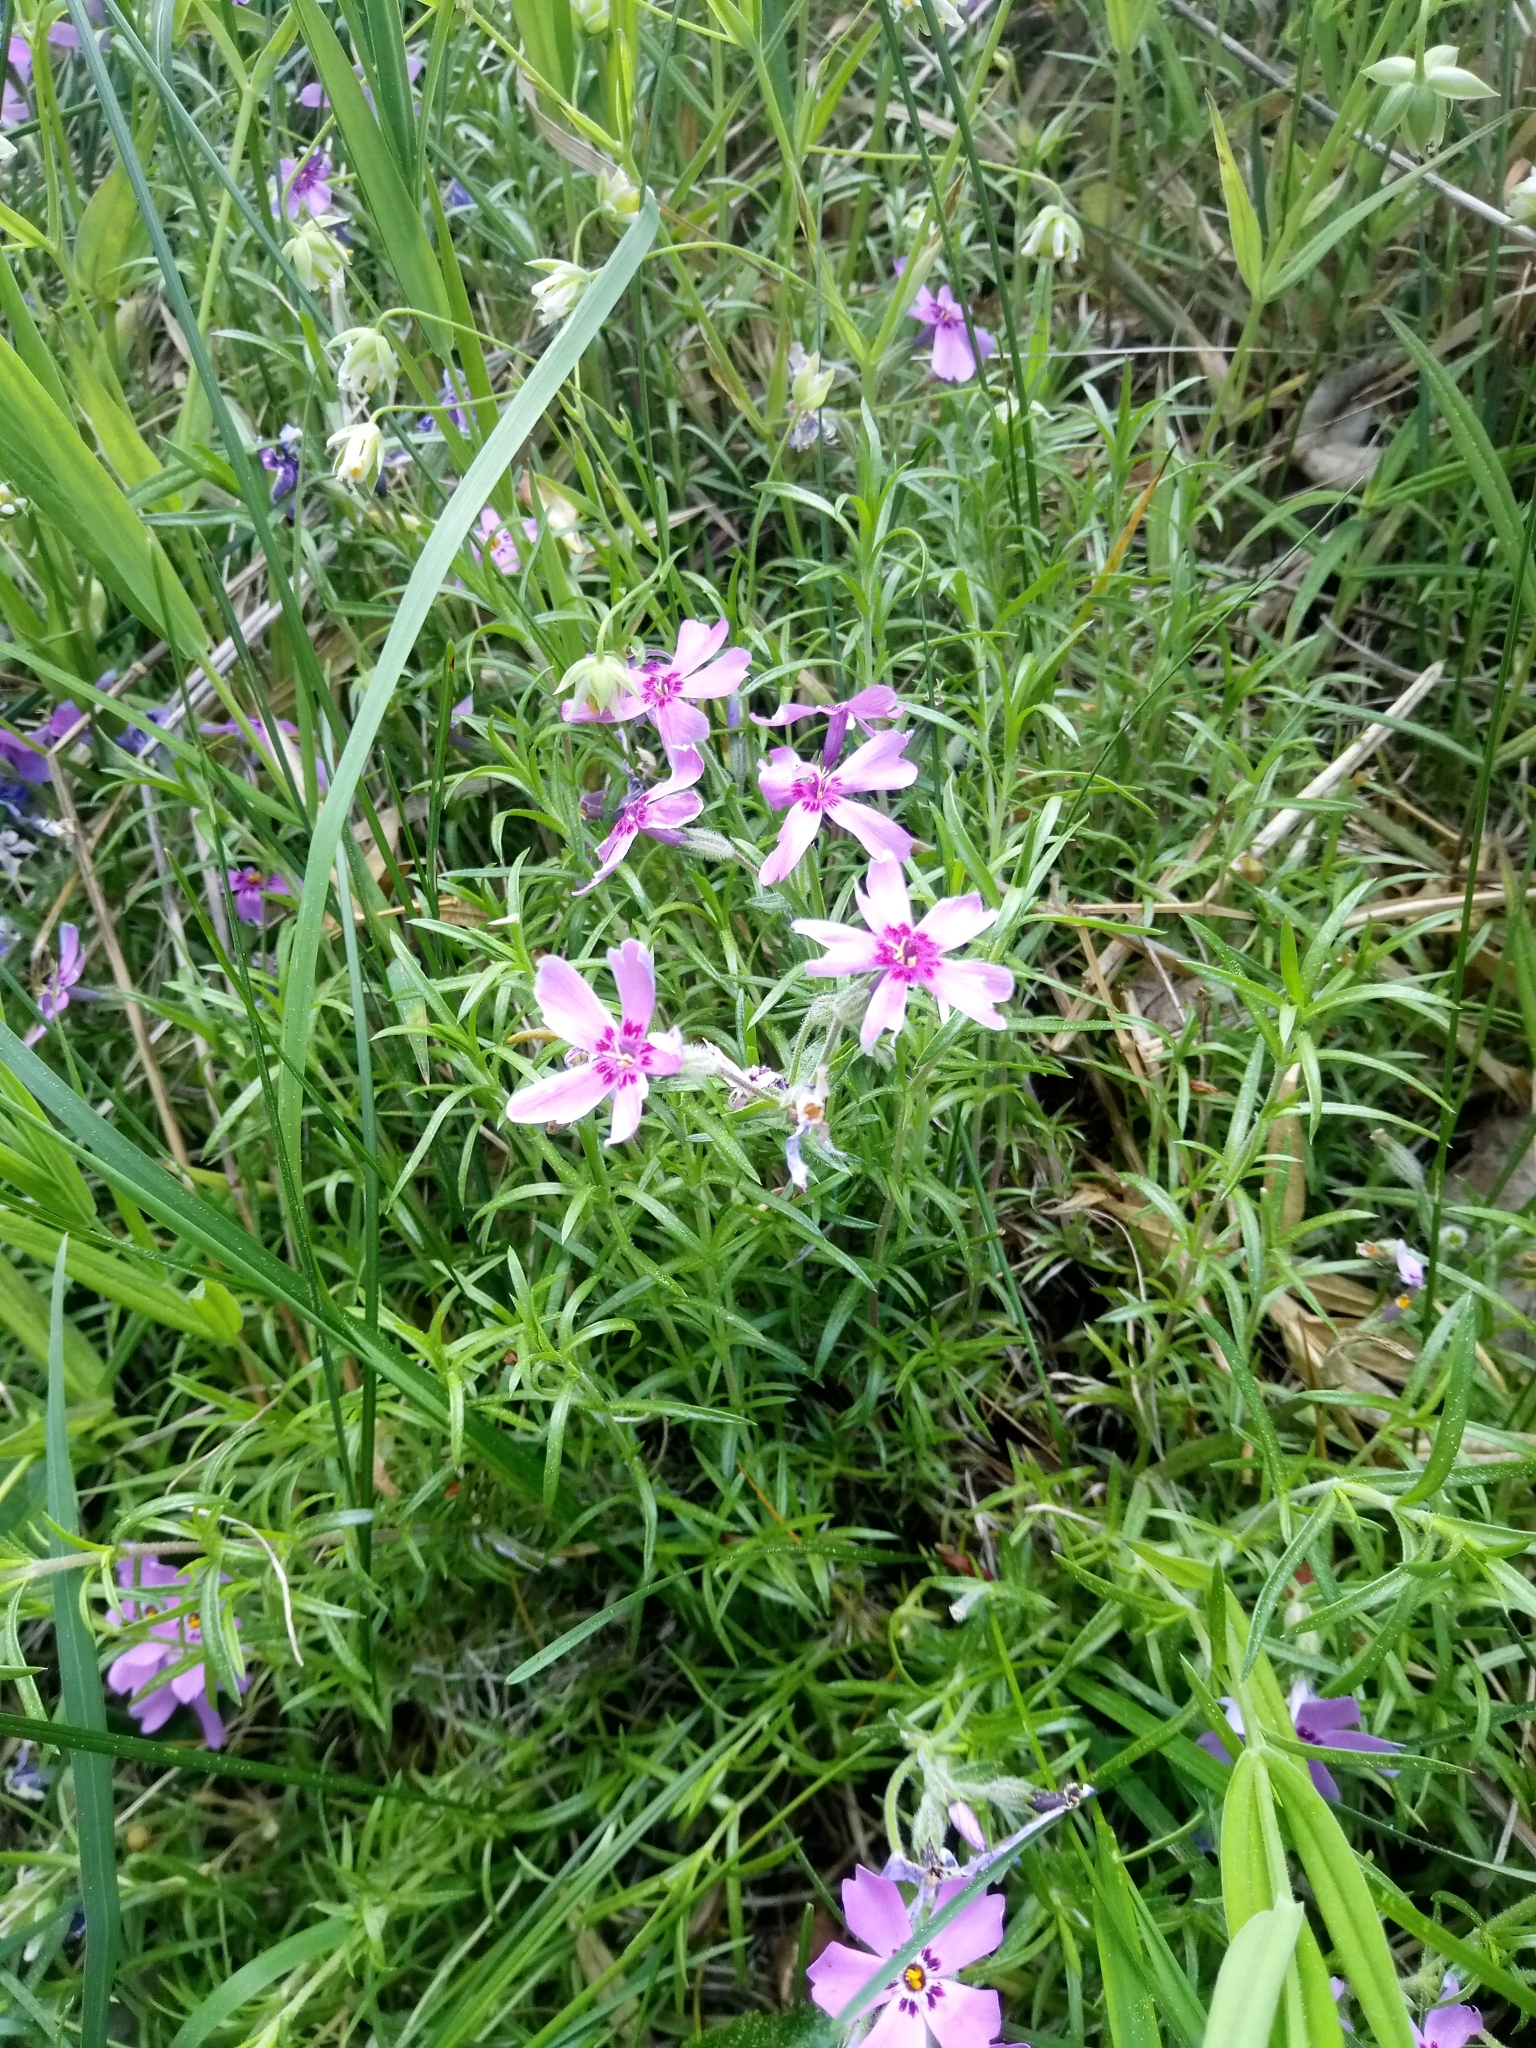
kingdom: Plantae
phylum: Tracheophyta
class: Magnoliopsida
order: Ericales
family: Polemoniaceae
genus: Phlox
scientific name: Phlox subulata
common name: Moss phlox
